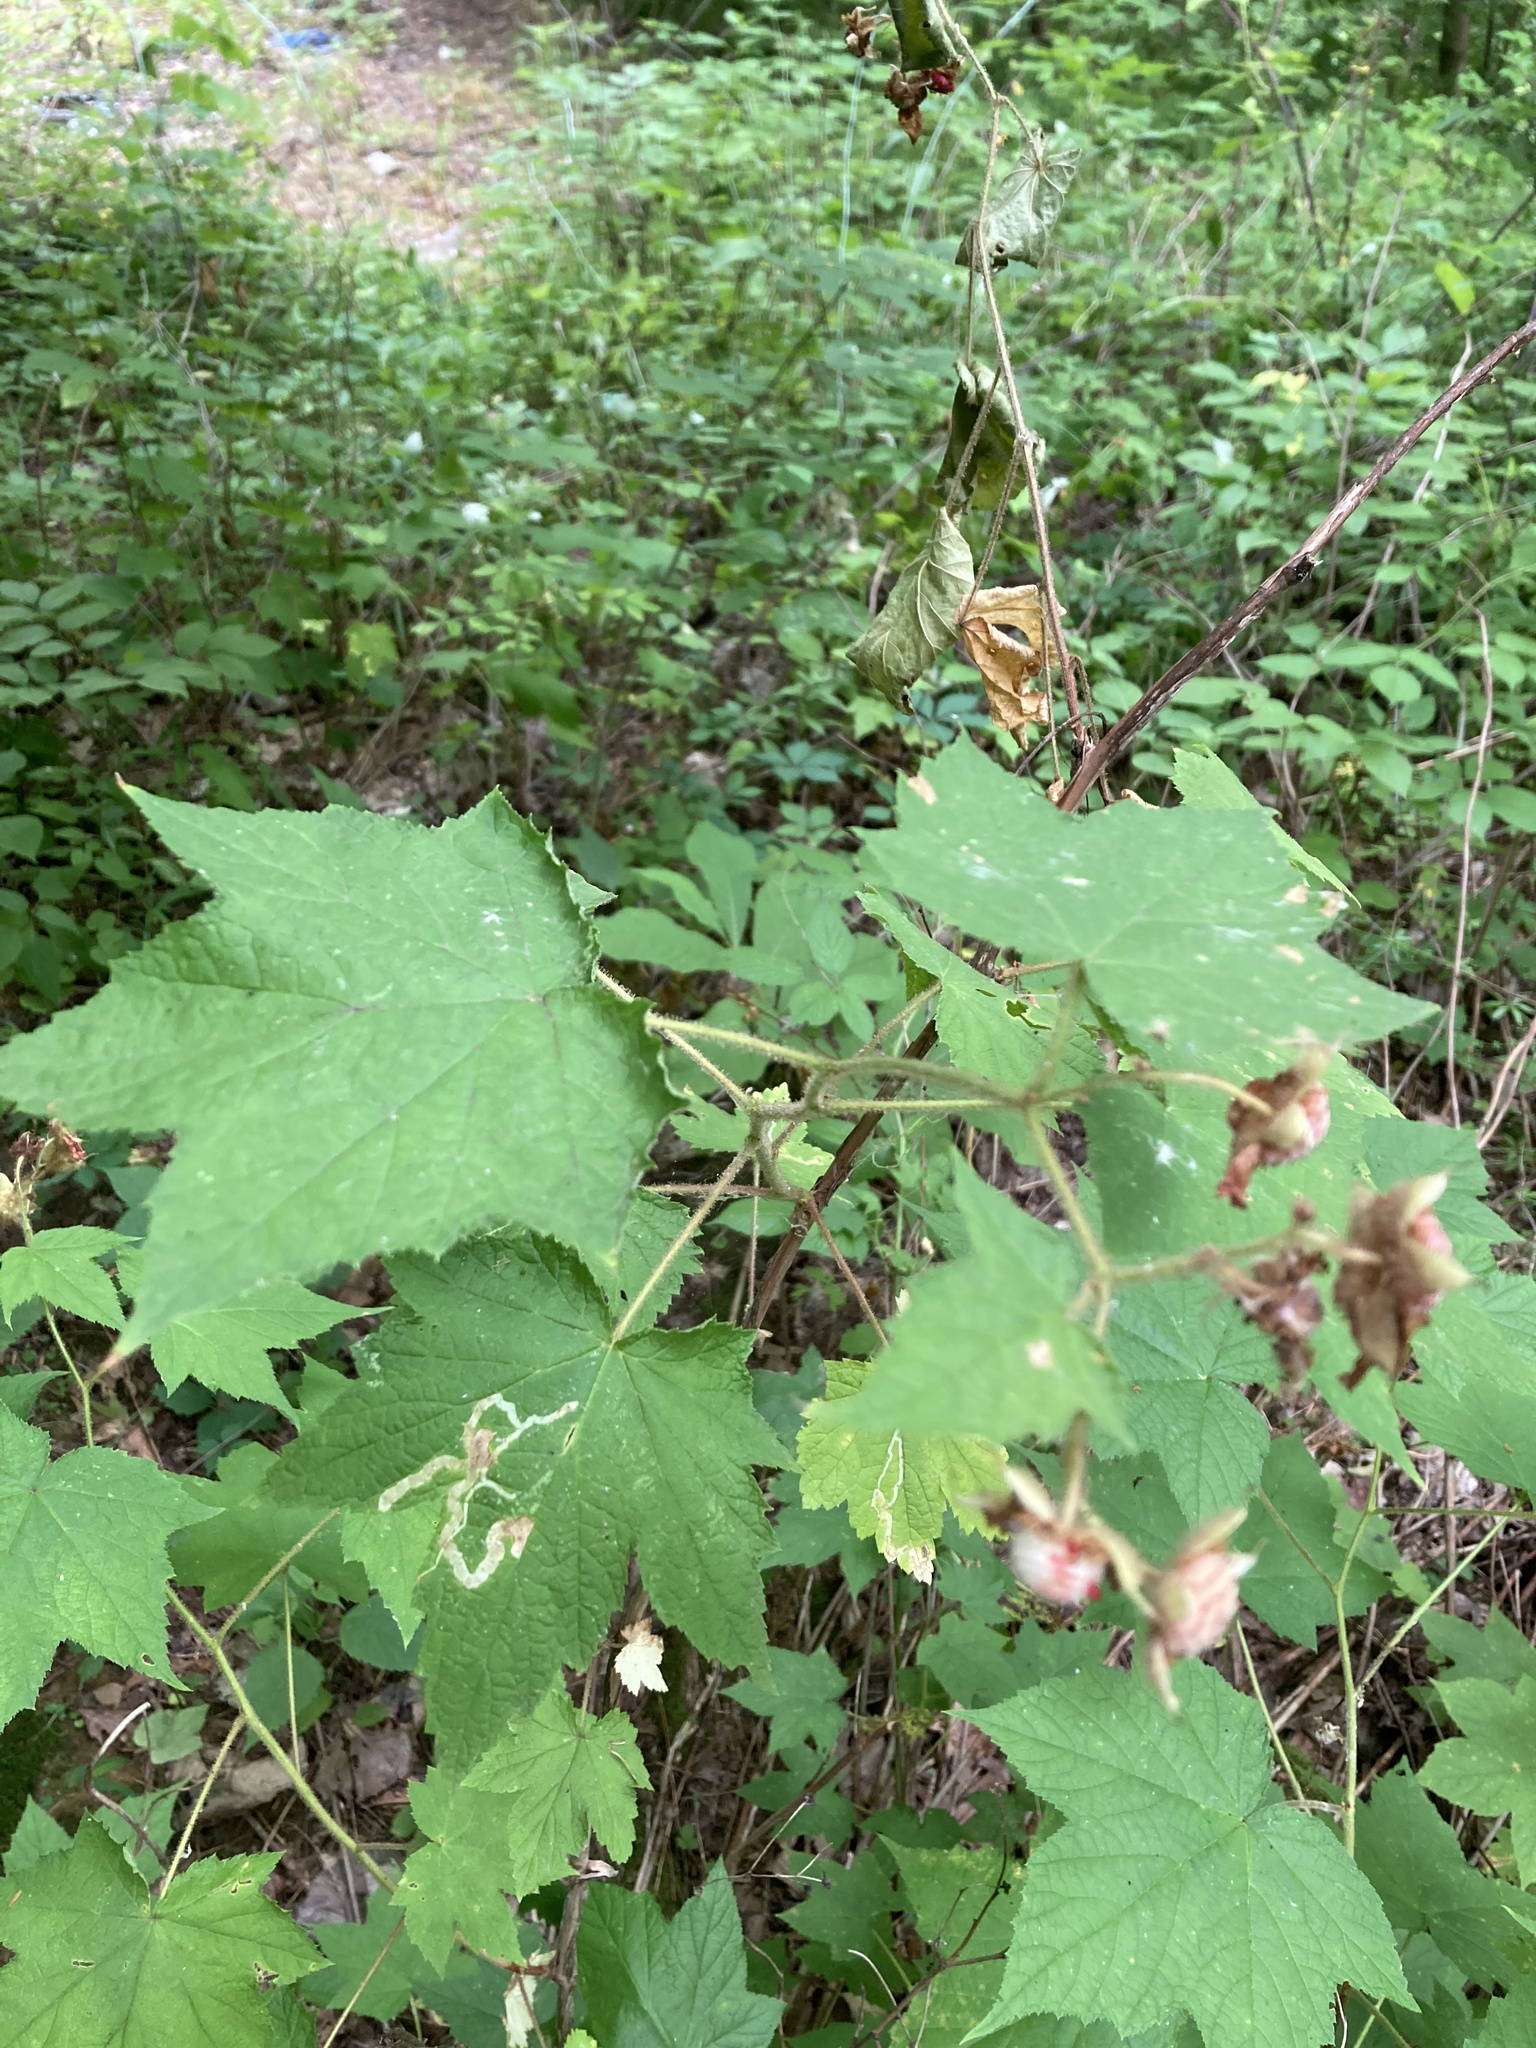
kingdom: Plantae
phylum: Tracheophyta
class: Magnoliopsida
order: Rosales
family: Rosaceae
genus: Rubus
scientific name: Rubus odoratus
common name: Purple-flowered raspberry
